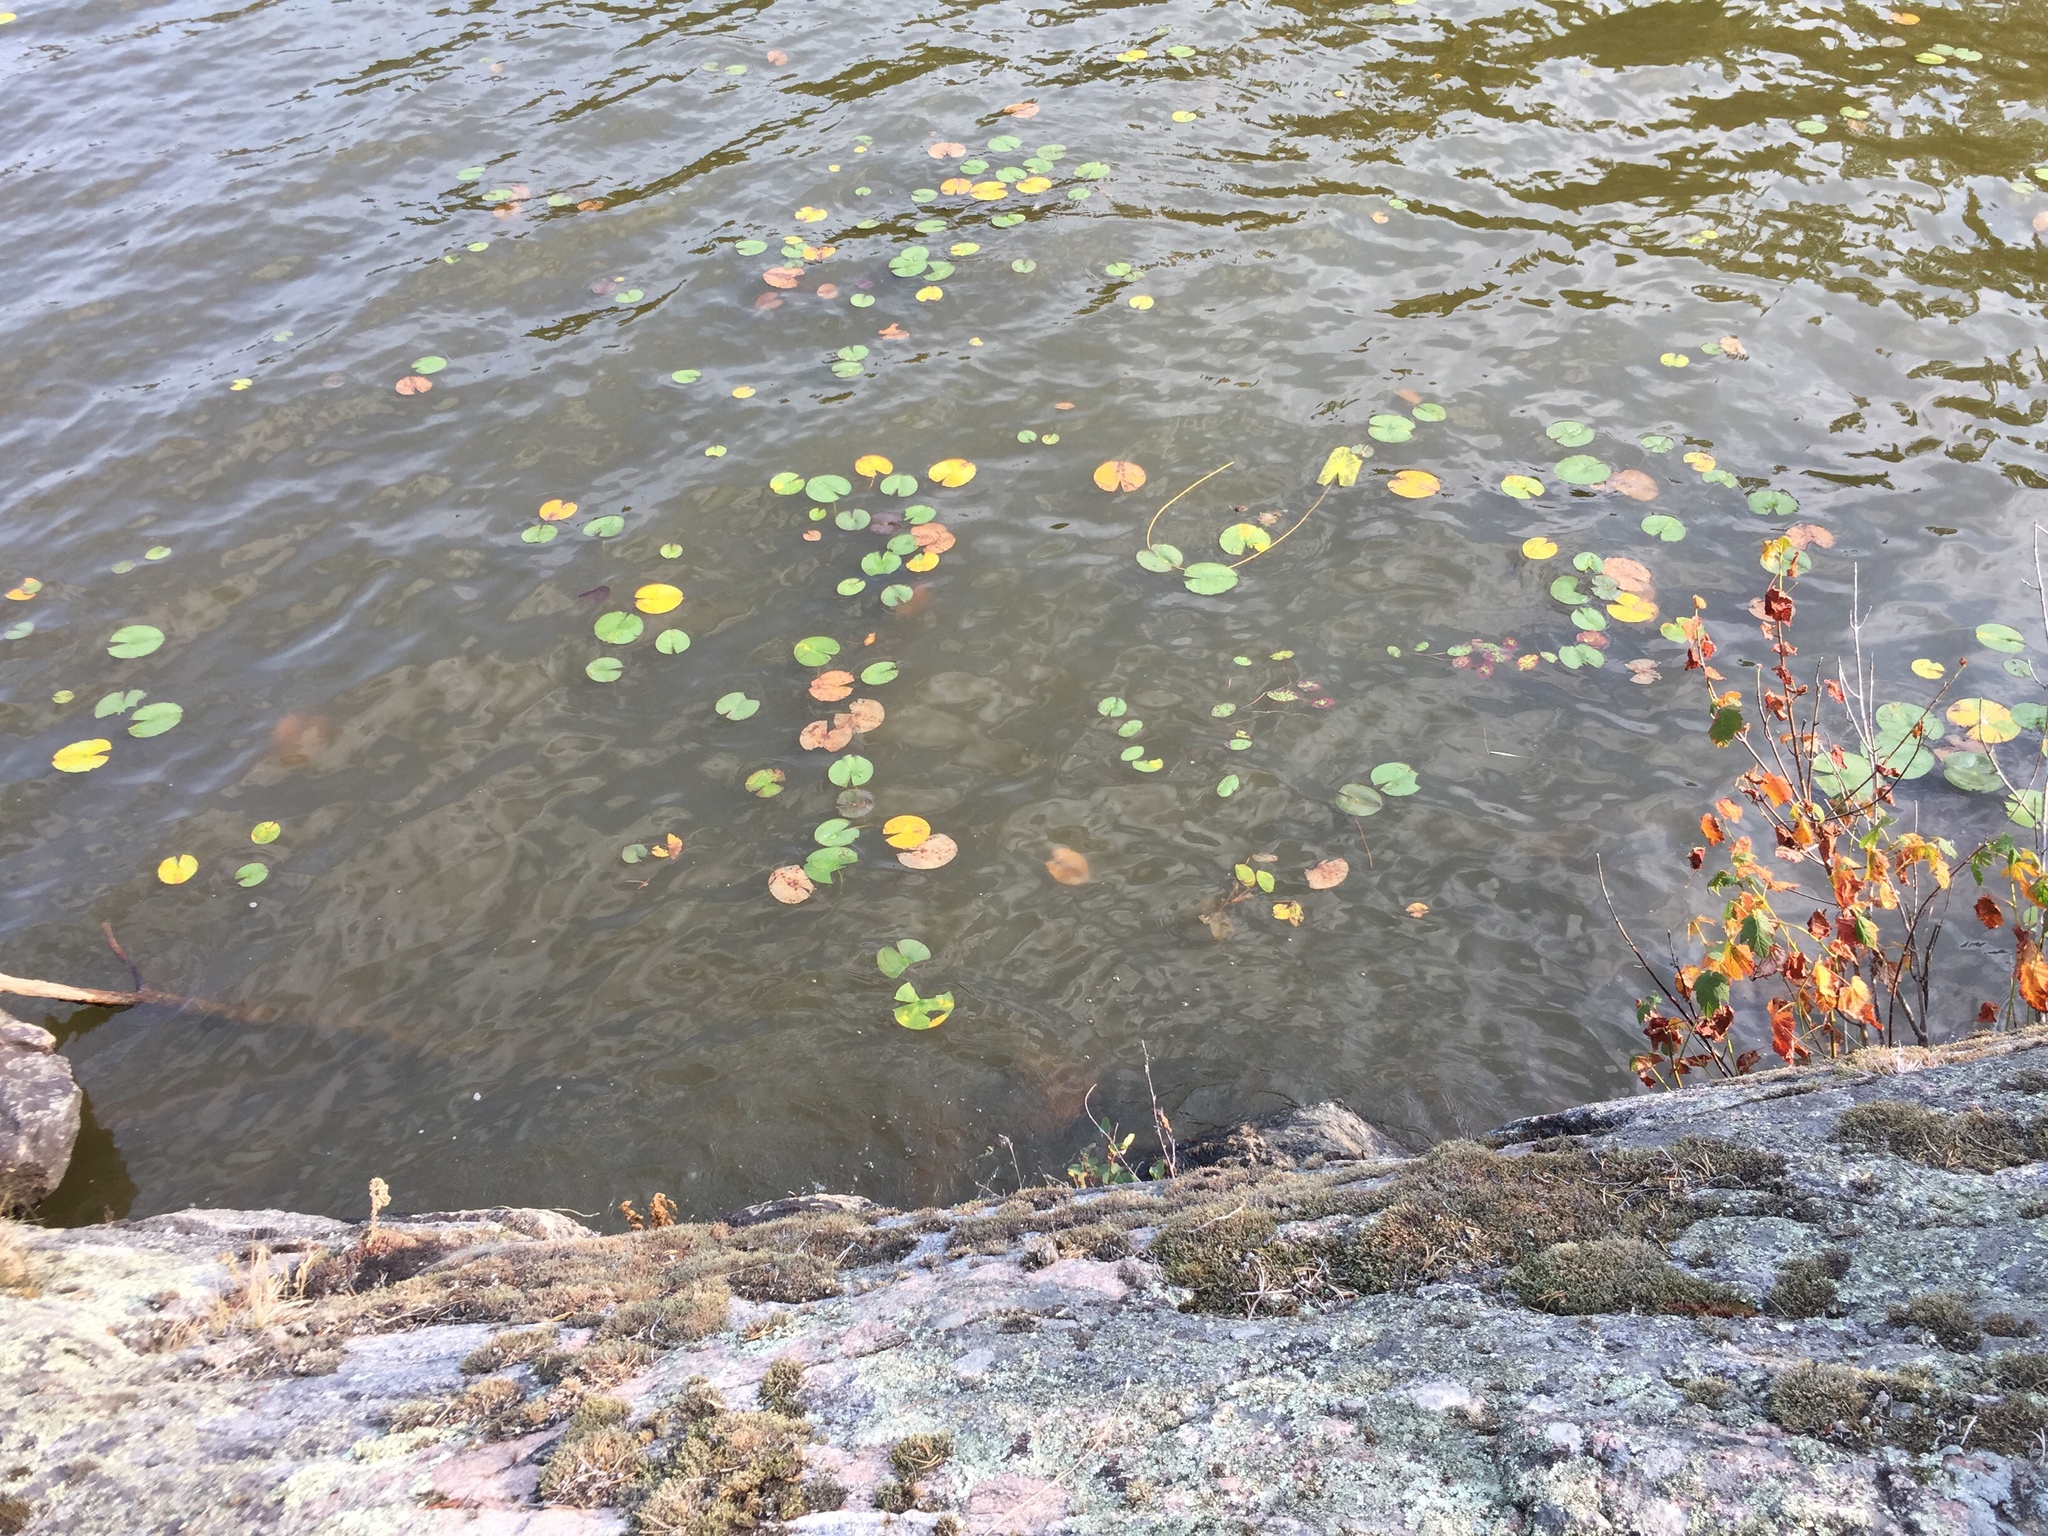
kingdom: Plantae
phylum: Tracheophyta
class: Magnoliopsida
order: Nymphaeales
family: Nymphaeaceae
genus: Nymphaea
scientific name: Nymphaea odorata
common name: Fragrant water-lily
